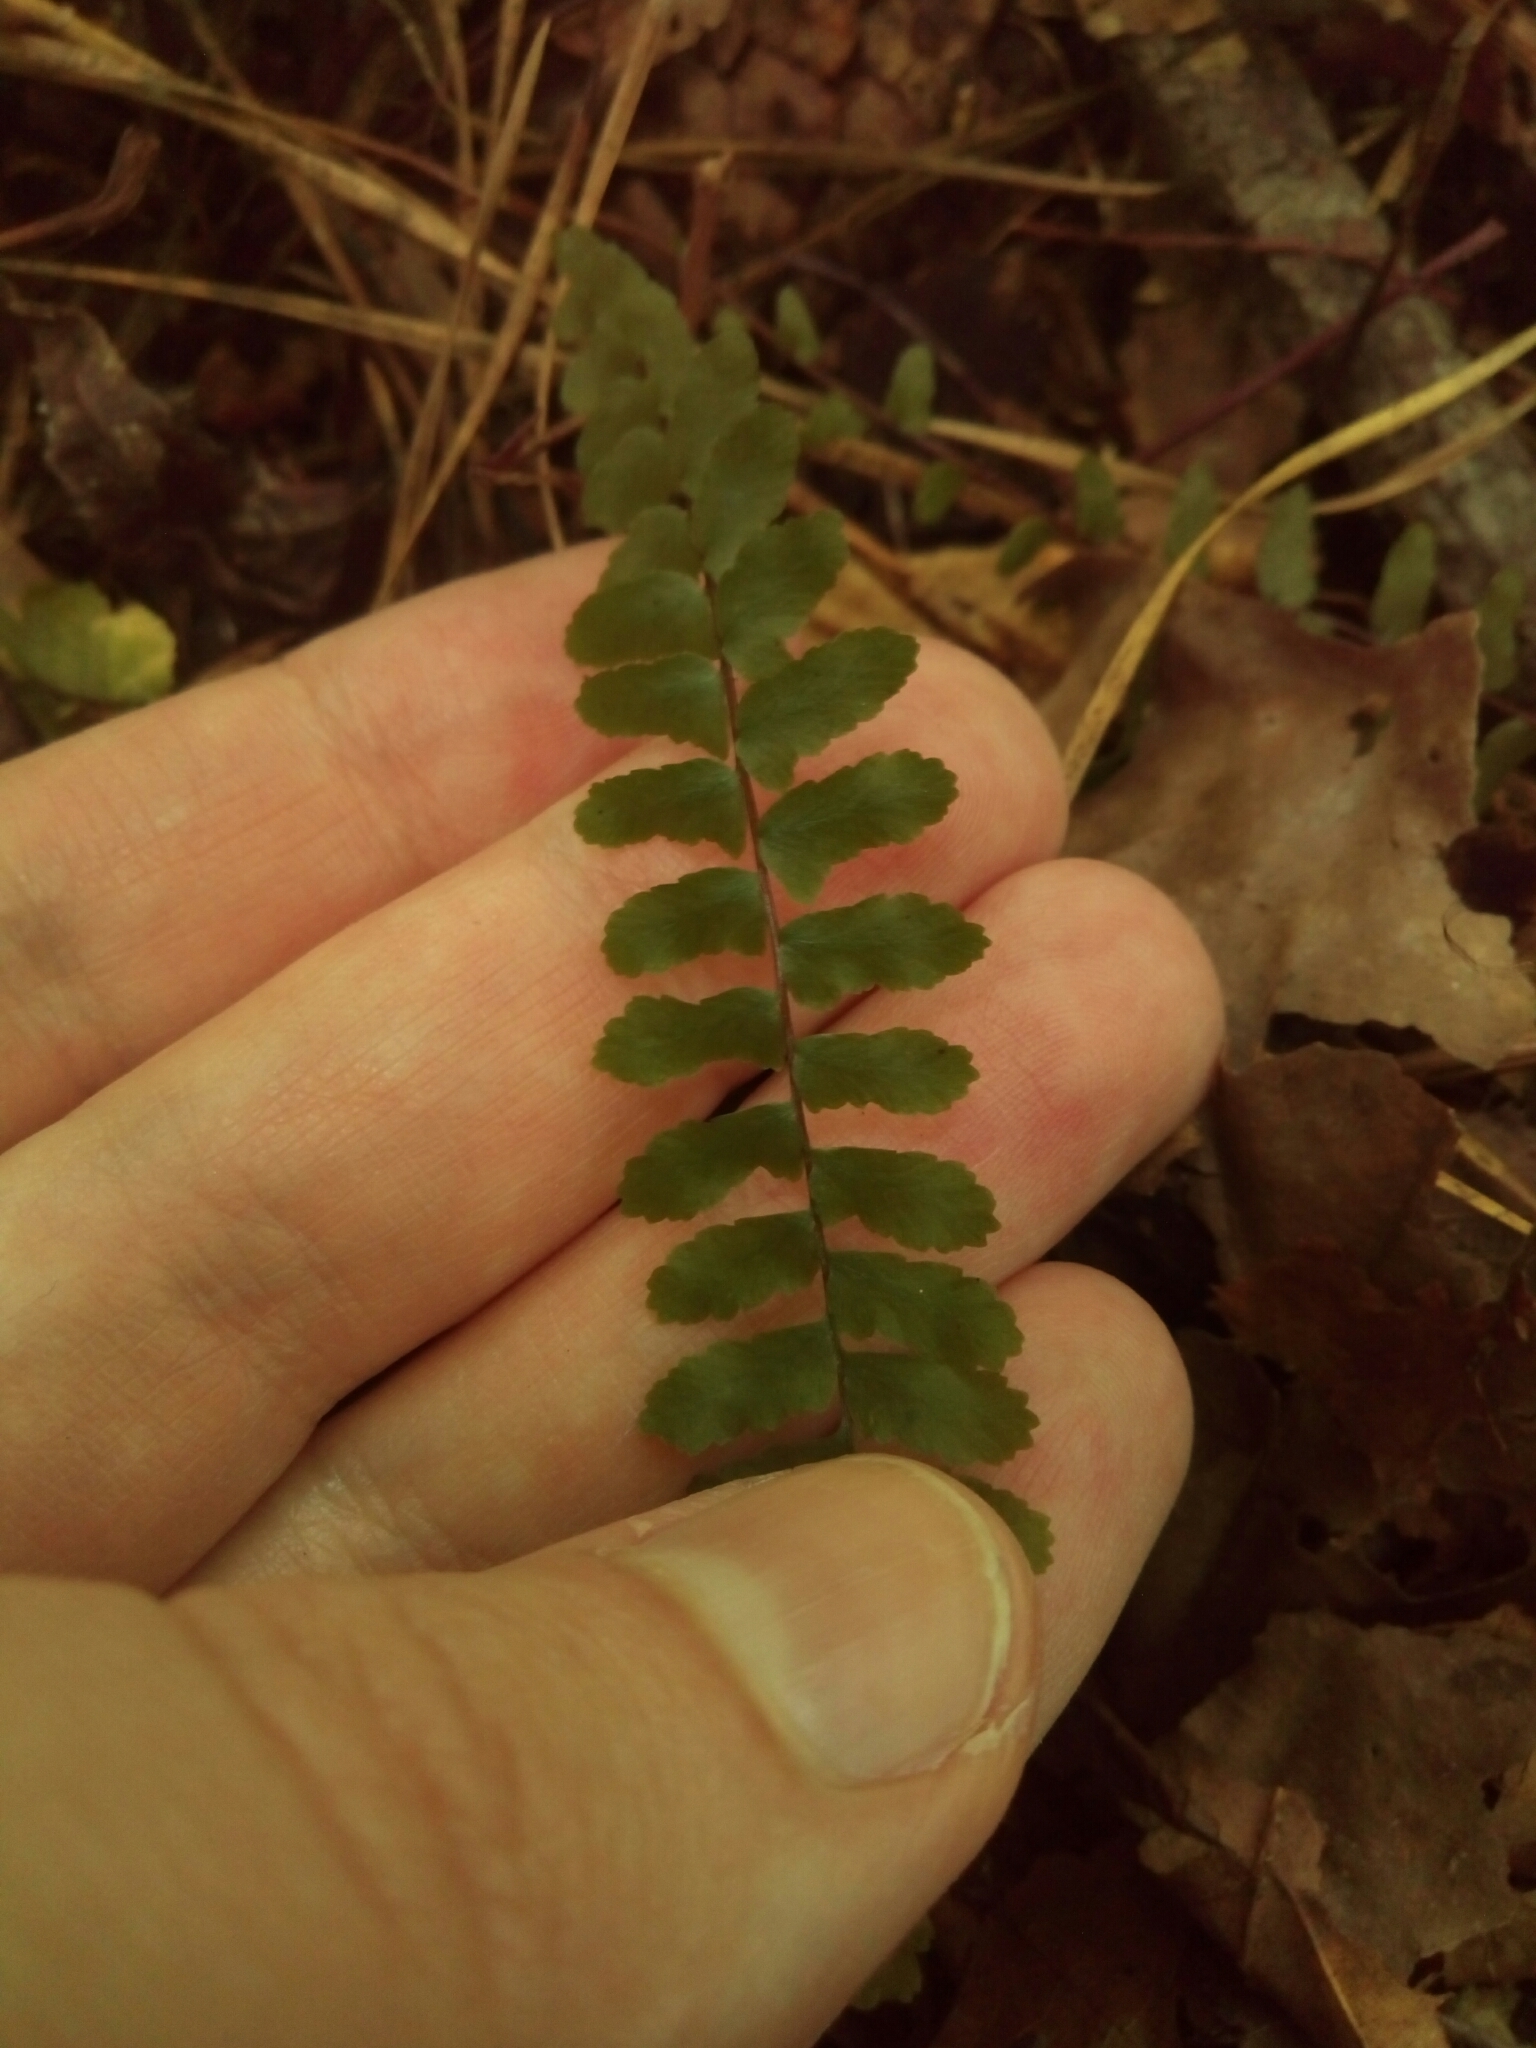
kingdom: Plantae
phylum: Tracheophyta
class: Polypodiopsida
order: Polypodiales
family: Aspleniaceae
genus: Asplenium
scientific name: Asplenium platyneuron
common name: Ebony spleenwort
